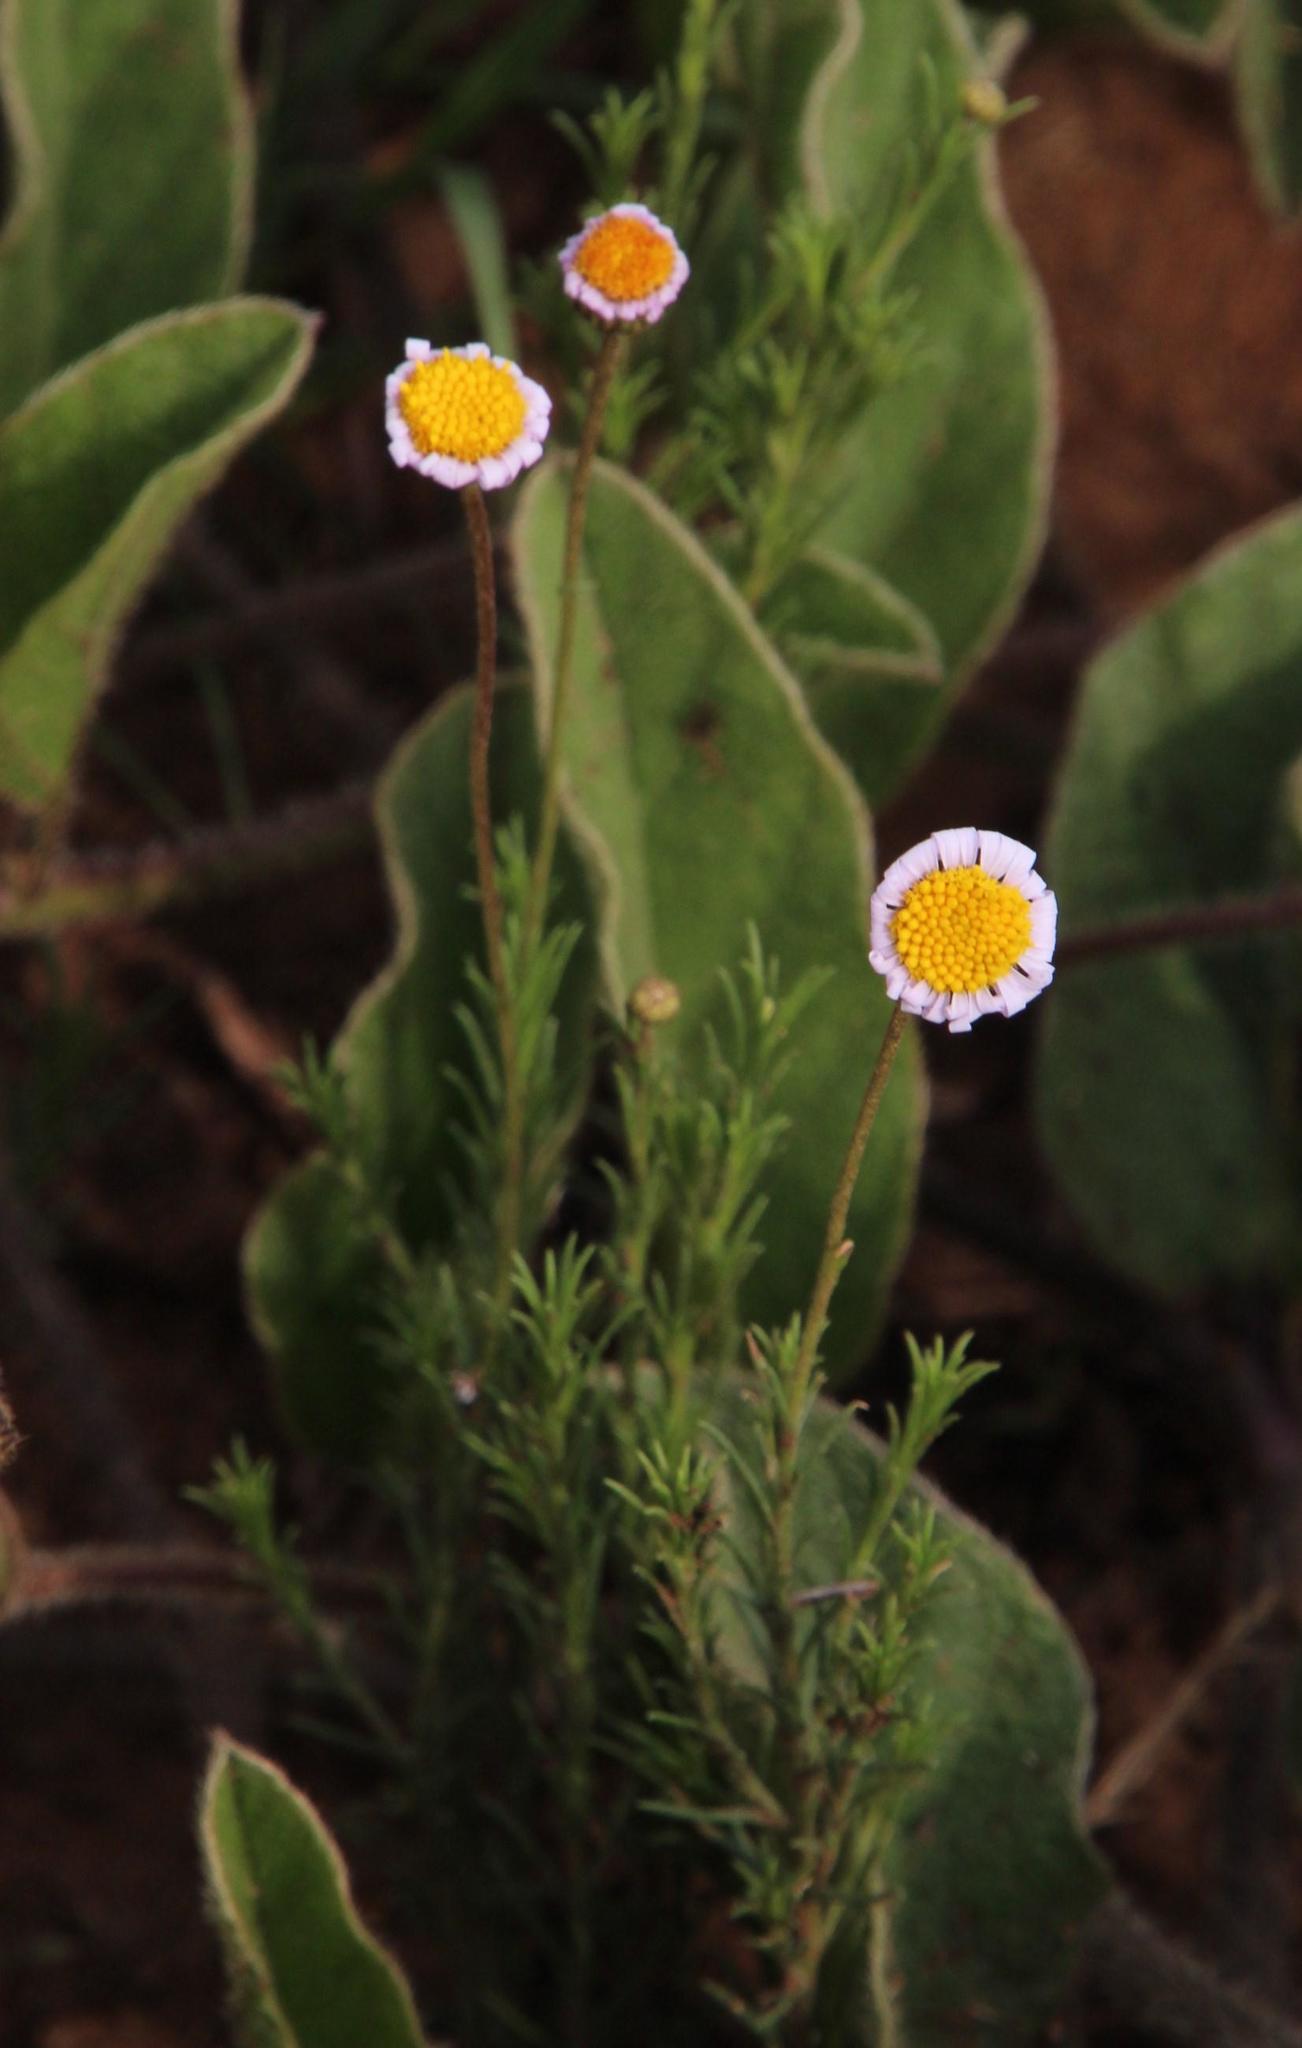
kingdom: Plantae
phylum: Tracheophyta
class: Magnoliopsida
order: Asterales
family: Asteraceae
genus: Felicia
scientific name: Felicia muricata
